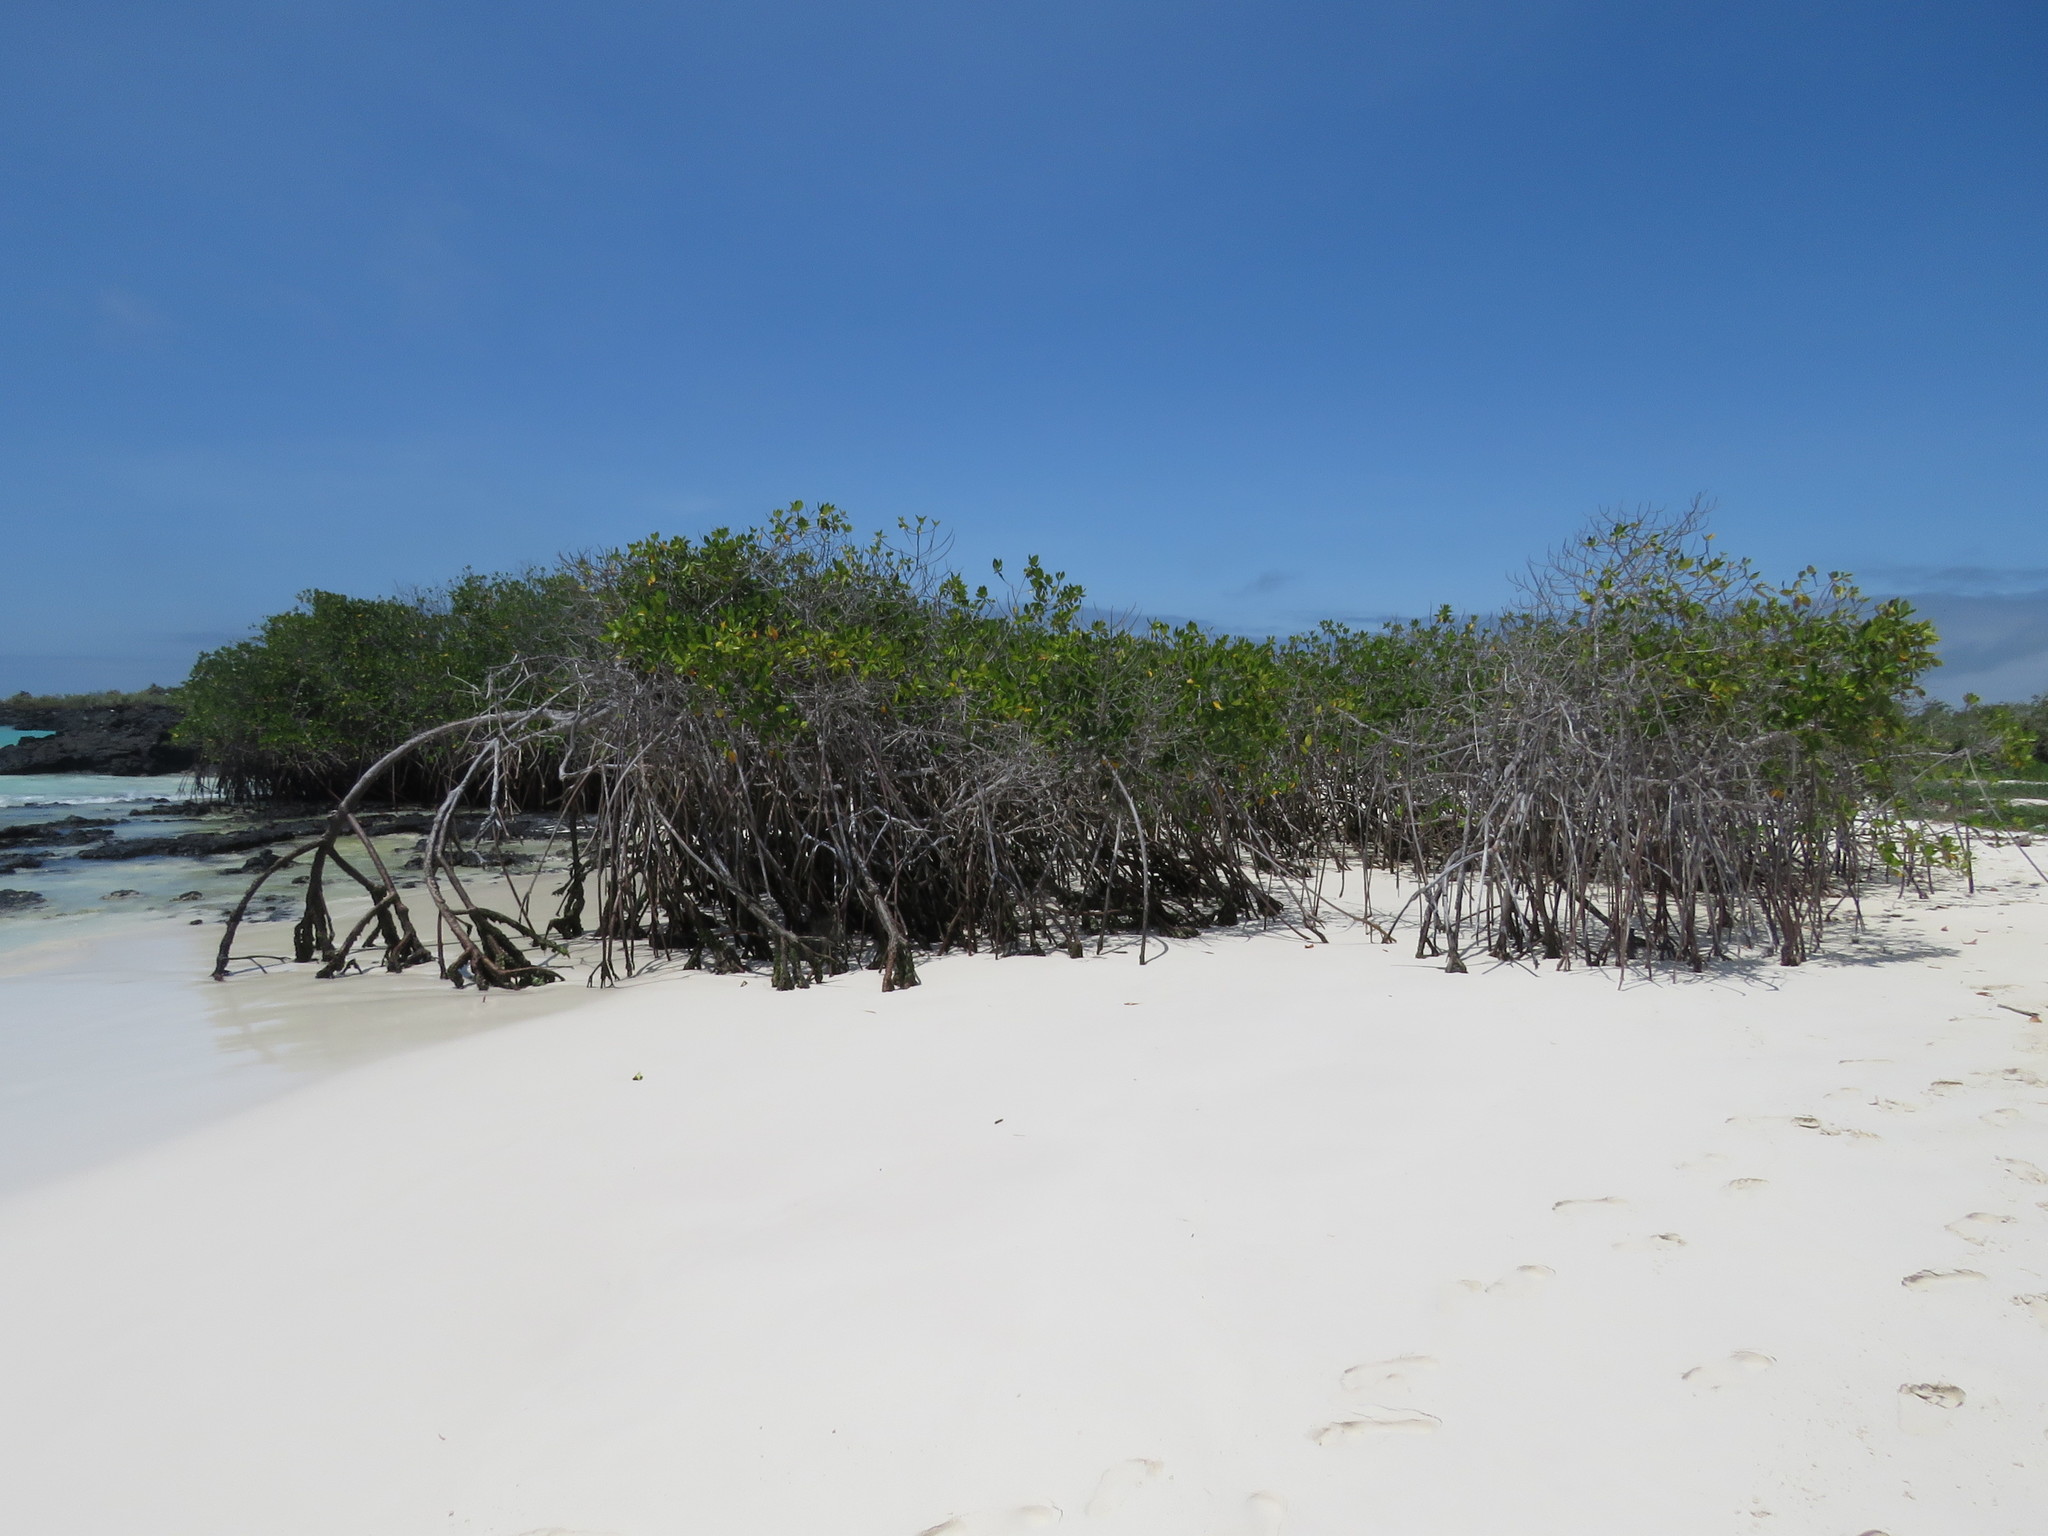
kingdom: Plantae
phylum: Tracheophyta
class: Magnoliopsida
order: Malpighiales
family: Rhizophoraceae
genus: Rhizophora
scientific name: Rhizophora mangle
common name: Red mangrove
